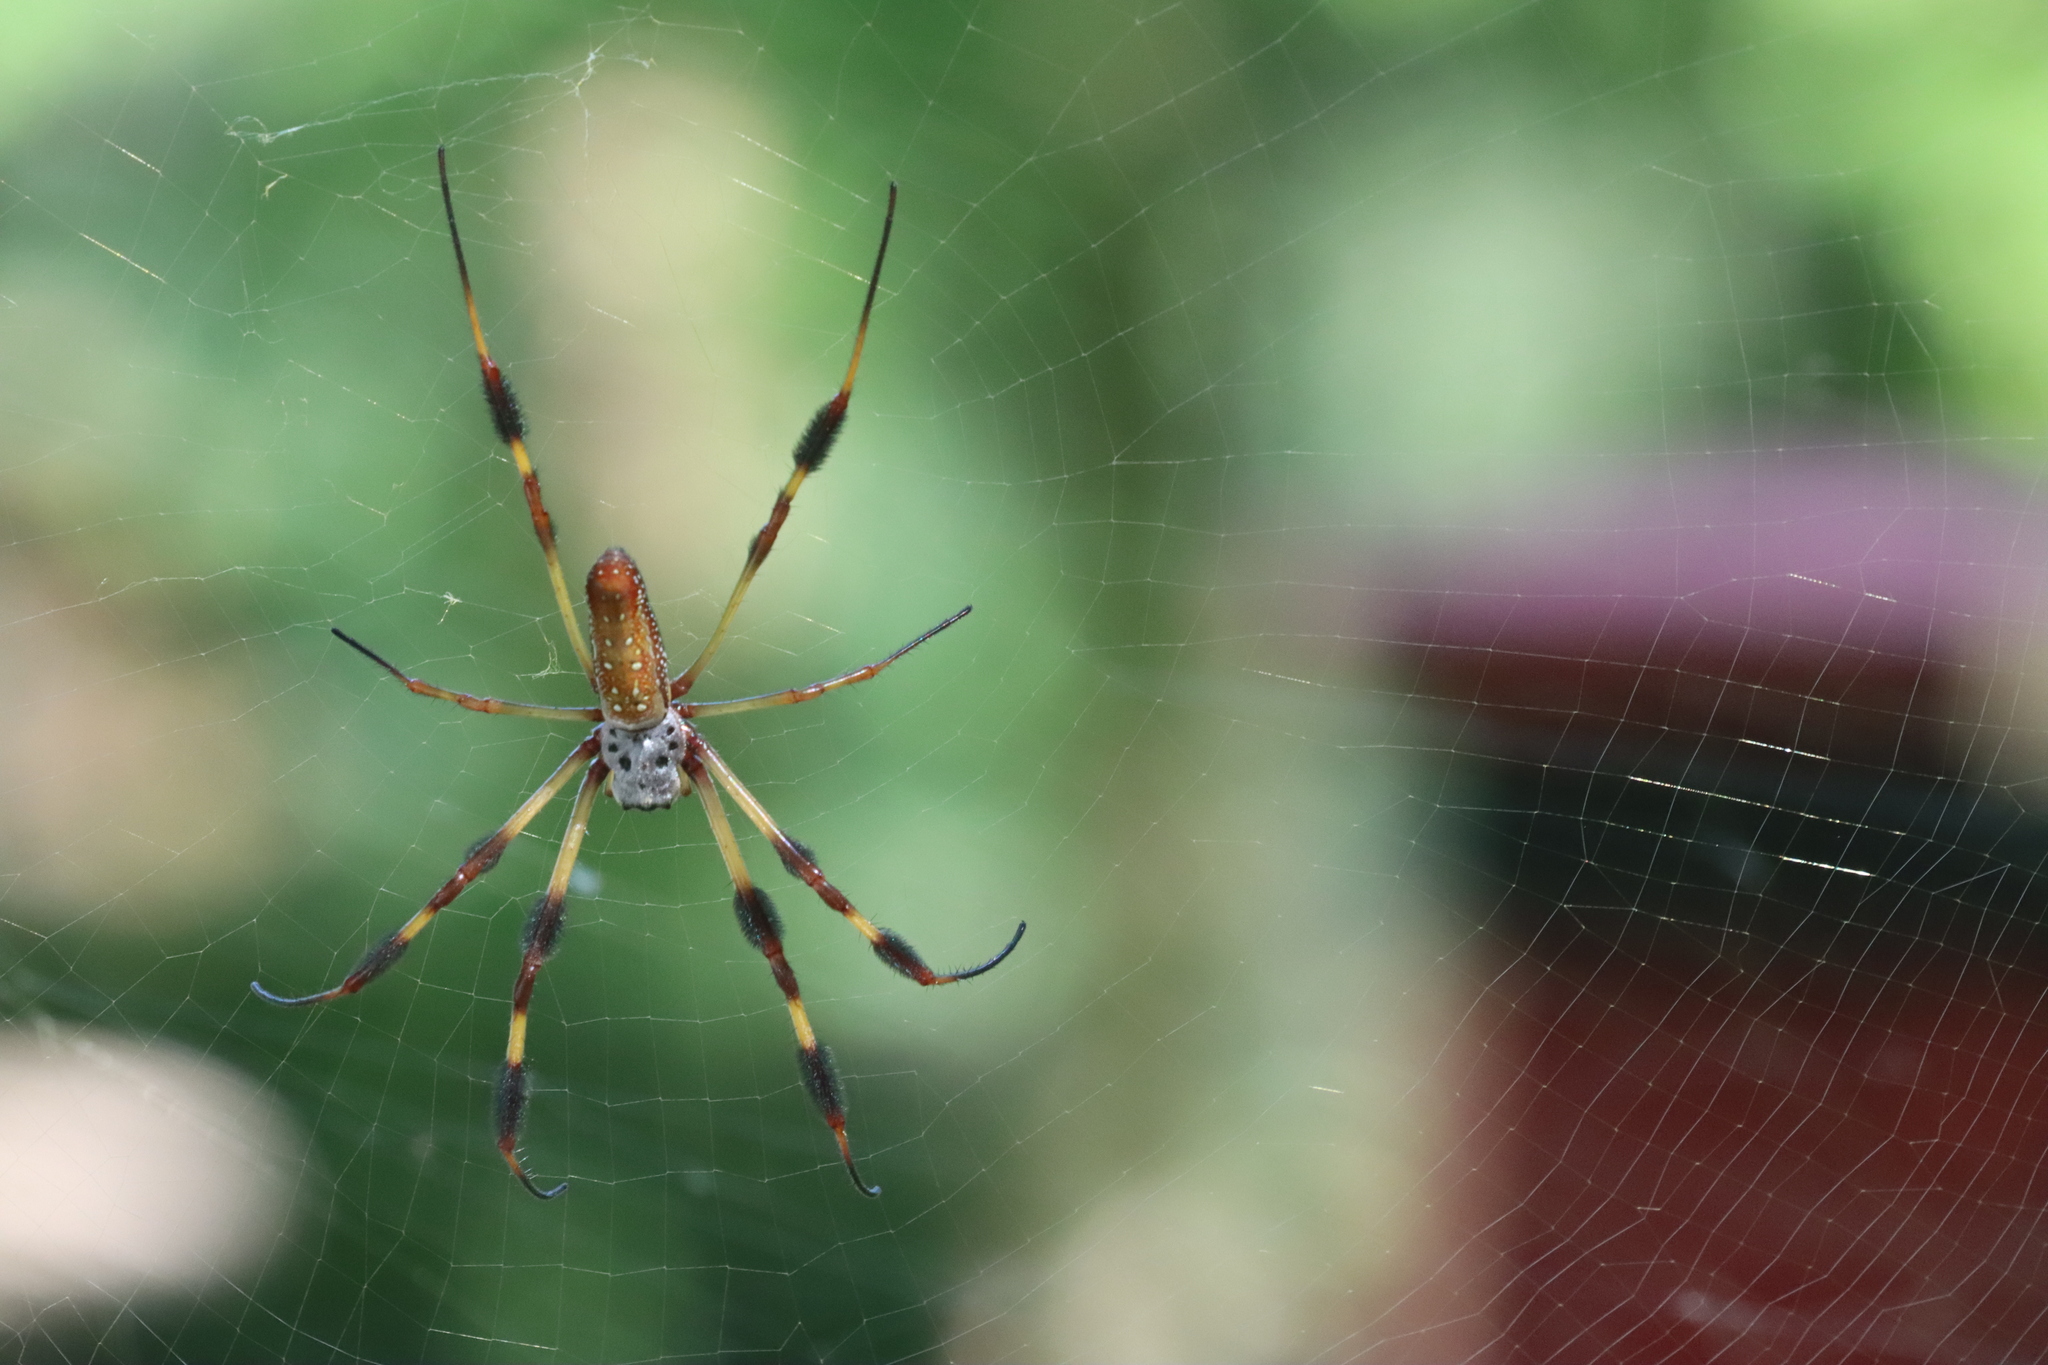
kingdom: Animalia
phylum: Arthropoda
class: Arachnida
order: Araneae
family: Araneidae
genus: Trichonephila
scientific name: Trichonephila clavipes
